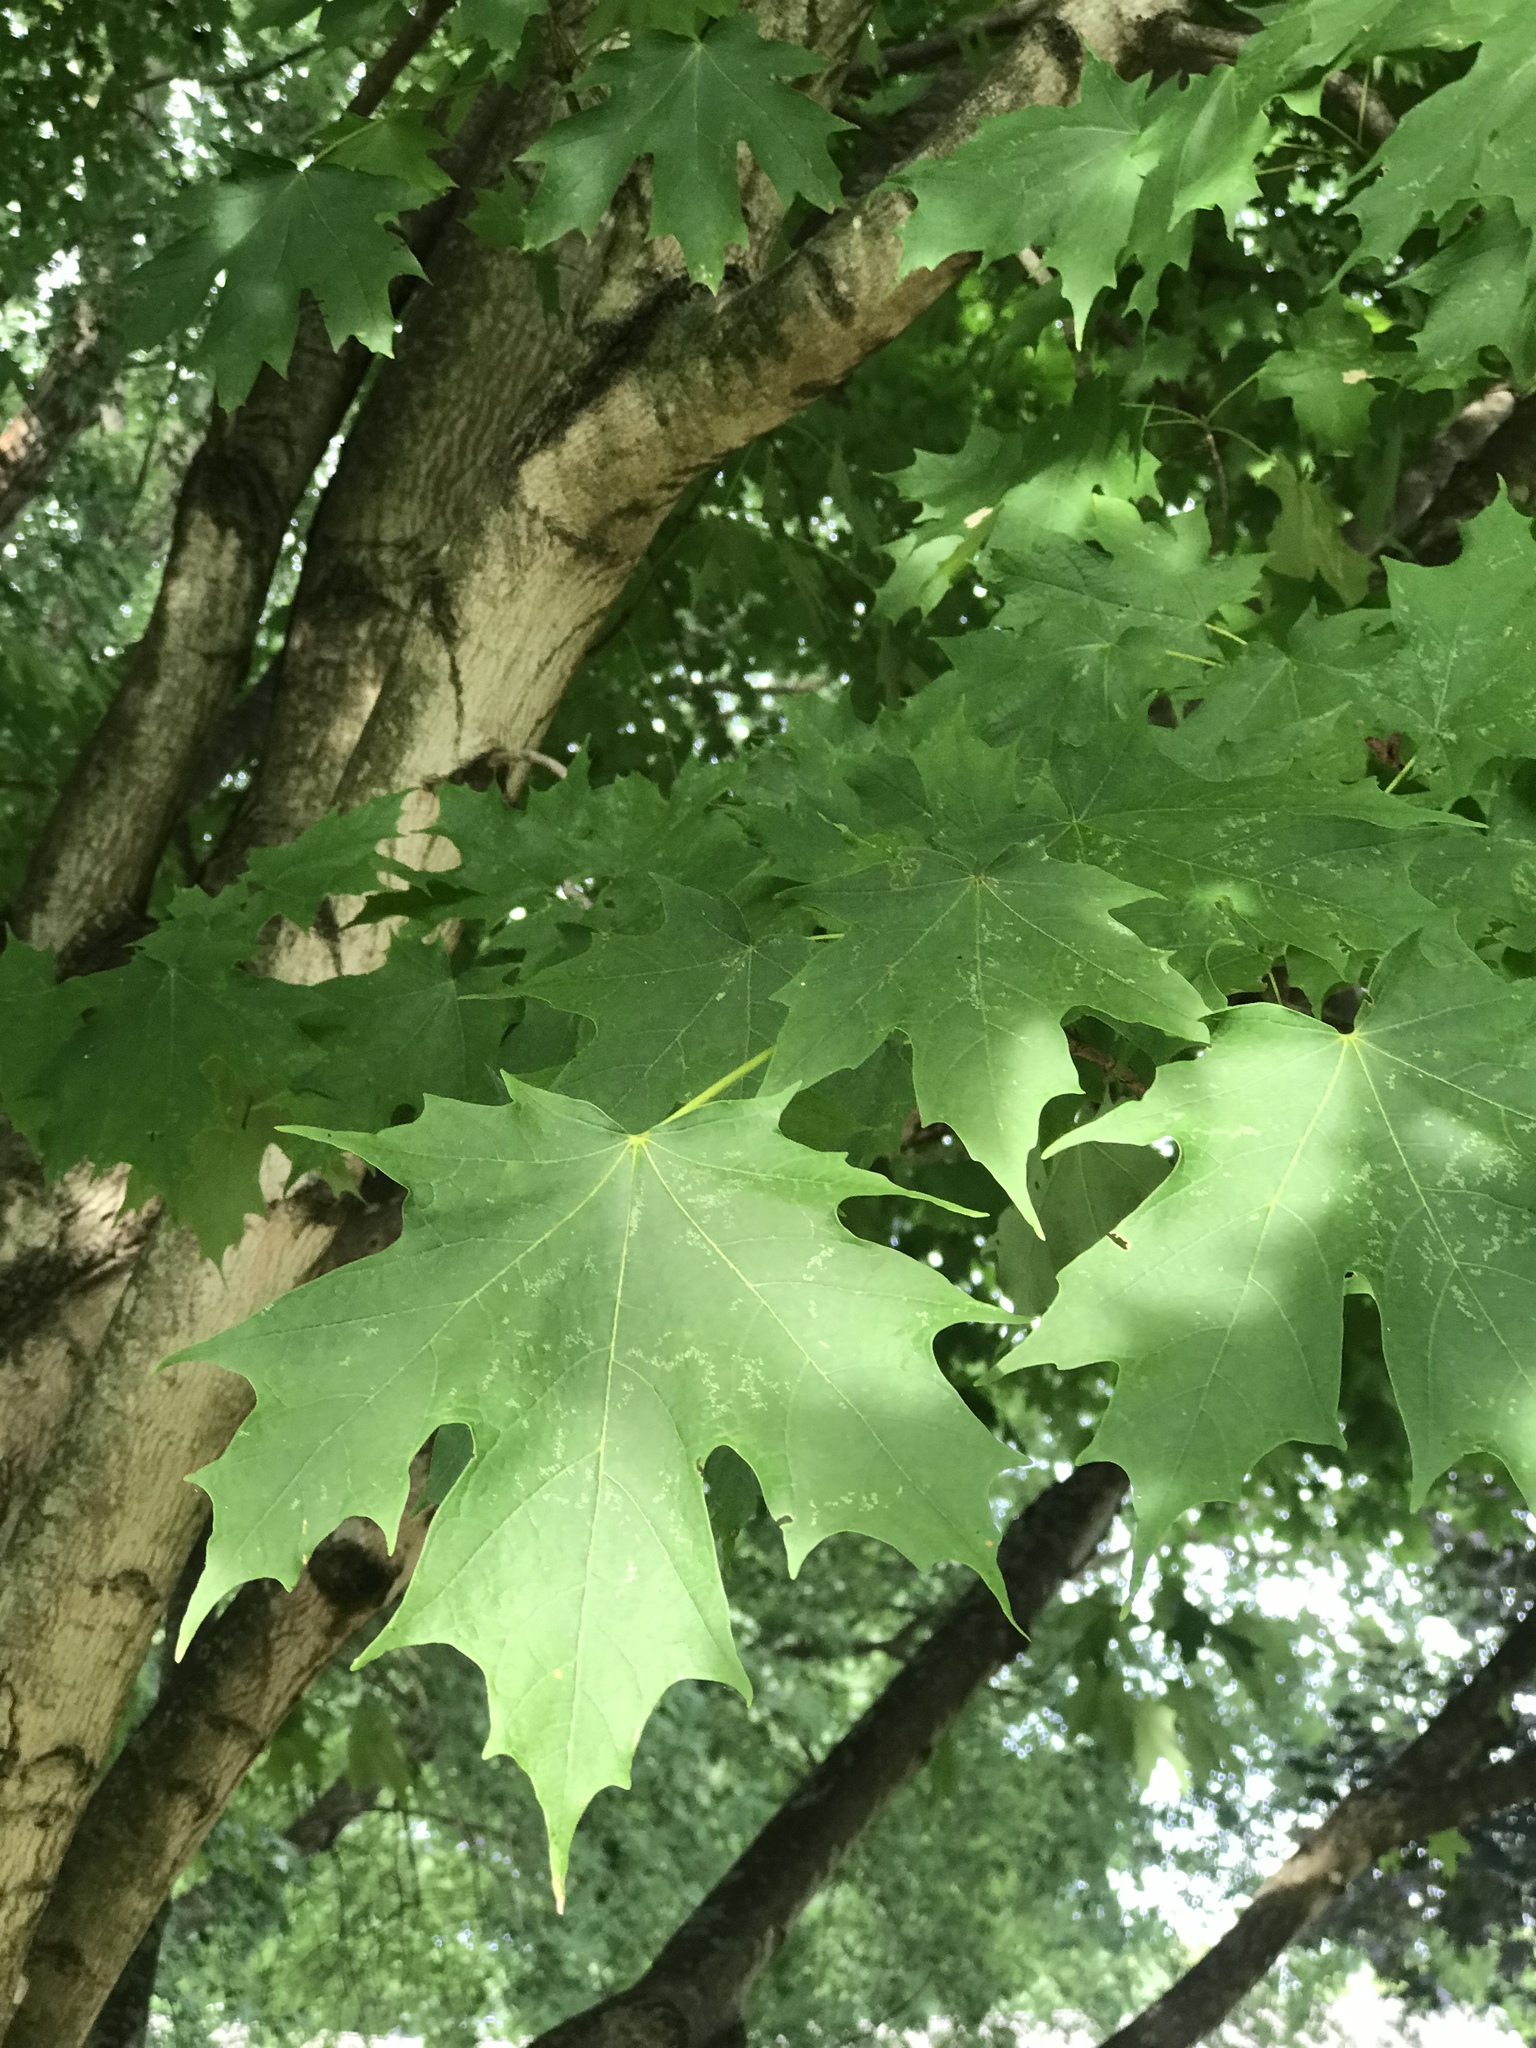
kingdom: Plantae
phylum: Tracheophyta
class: Magnoliopsida
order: Sapindales
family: Sapindaceae
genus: Acer
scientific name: Acer saccharum
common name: Sugar maple
